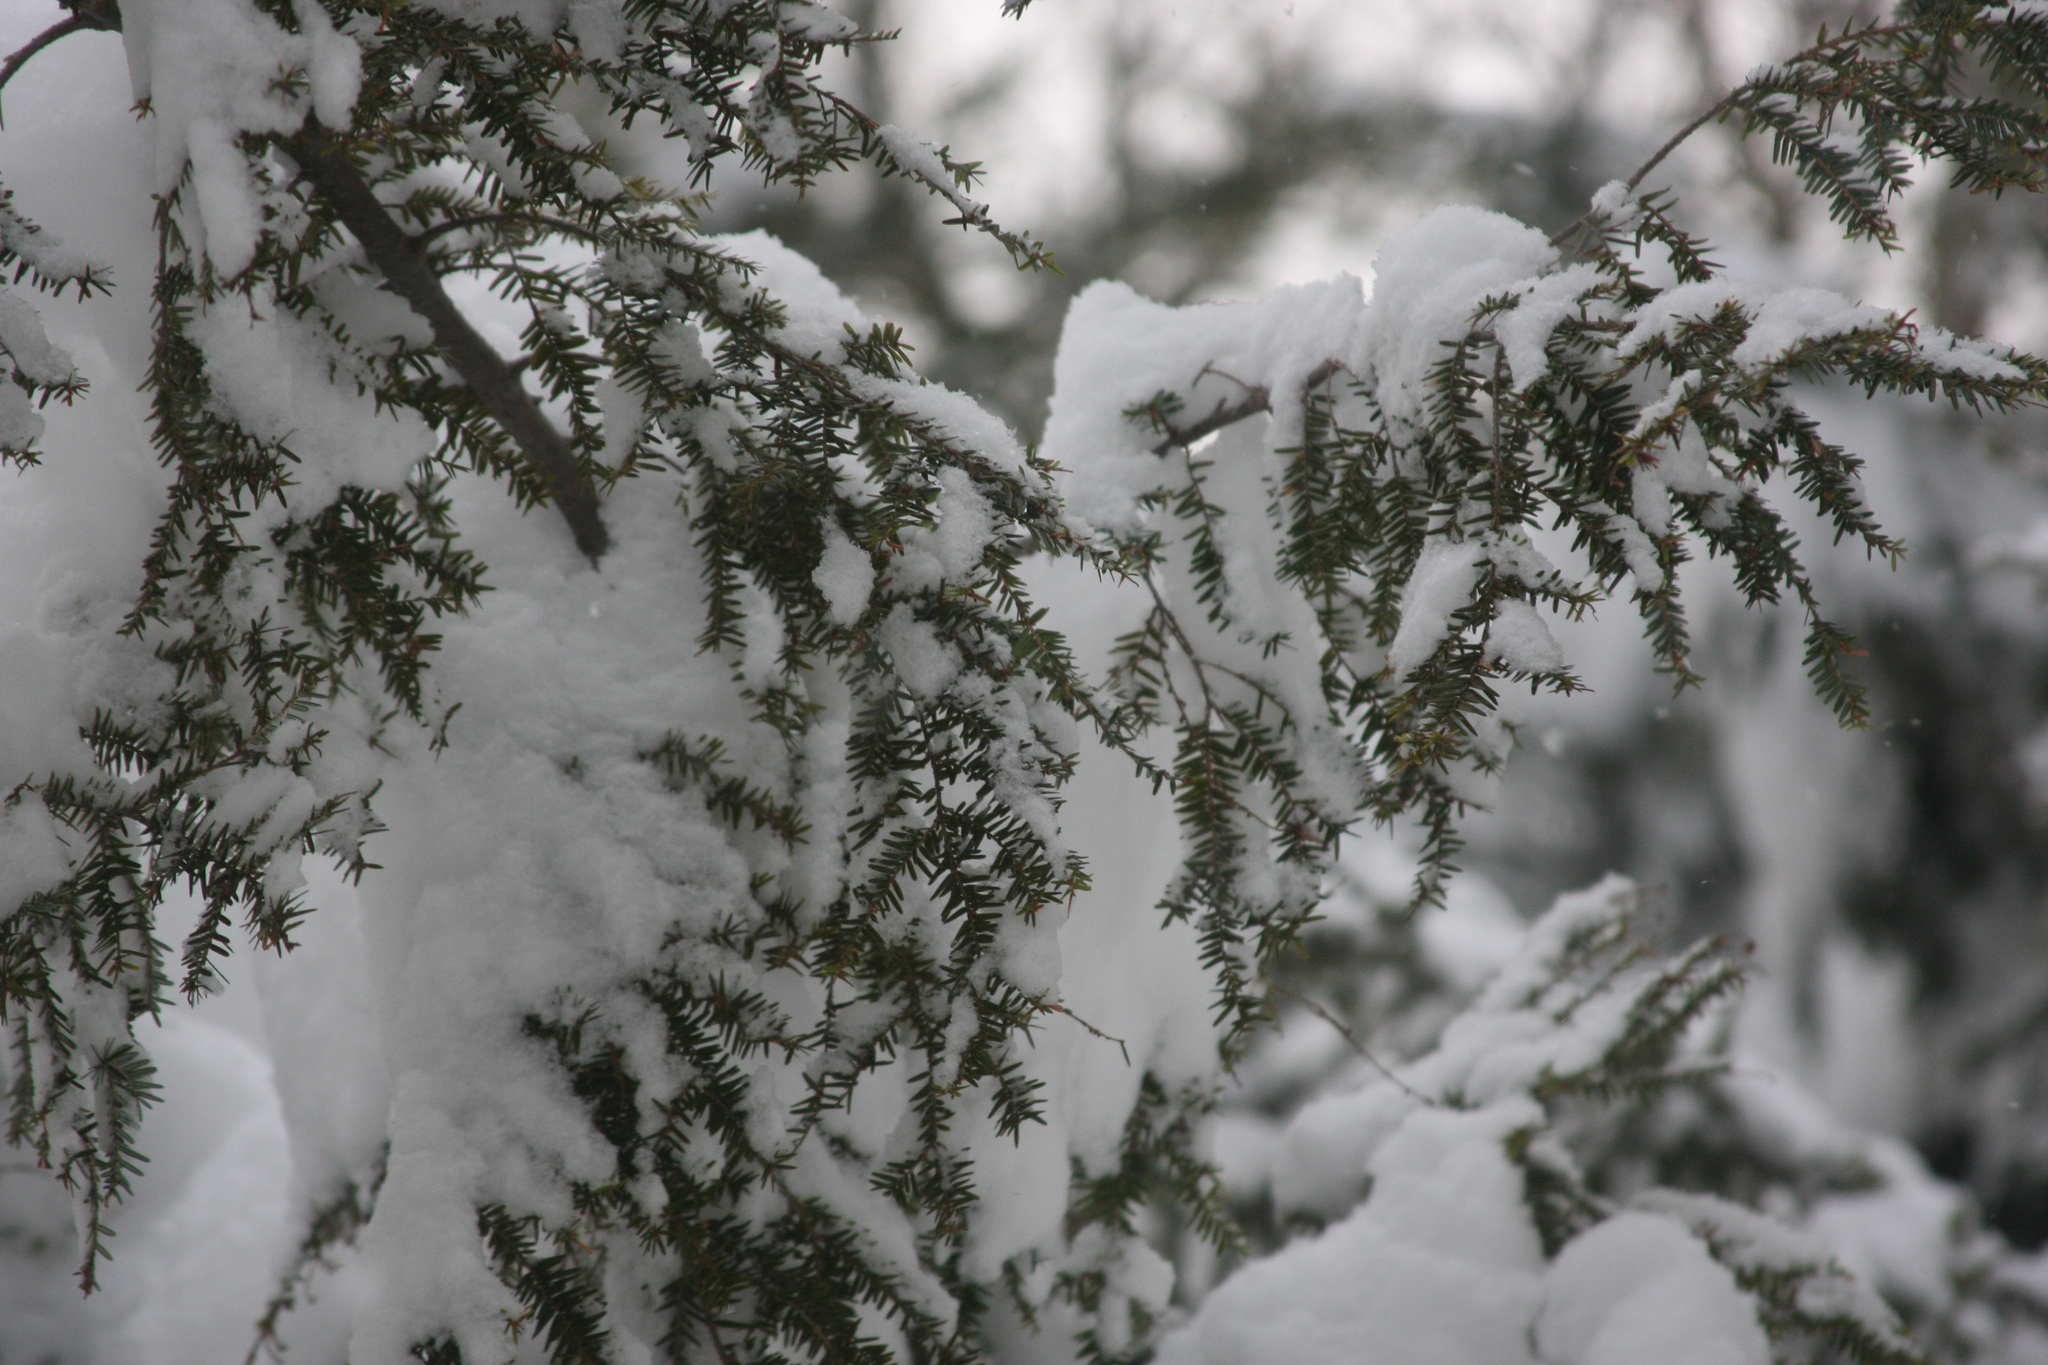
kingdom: Plantae
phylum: Tracheophyta
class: Pinopsida
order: Pinales
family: Pinaceae
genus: Tsuga
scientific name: Tsuga canadensis
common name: Eastern hemlock
